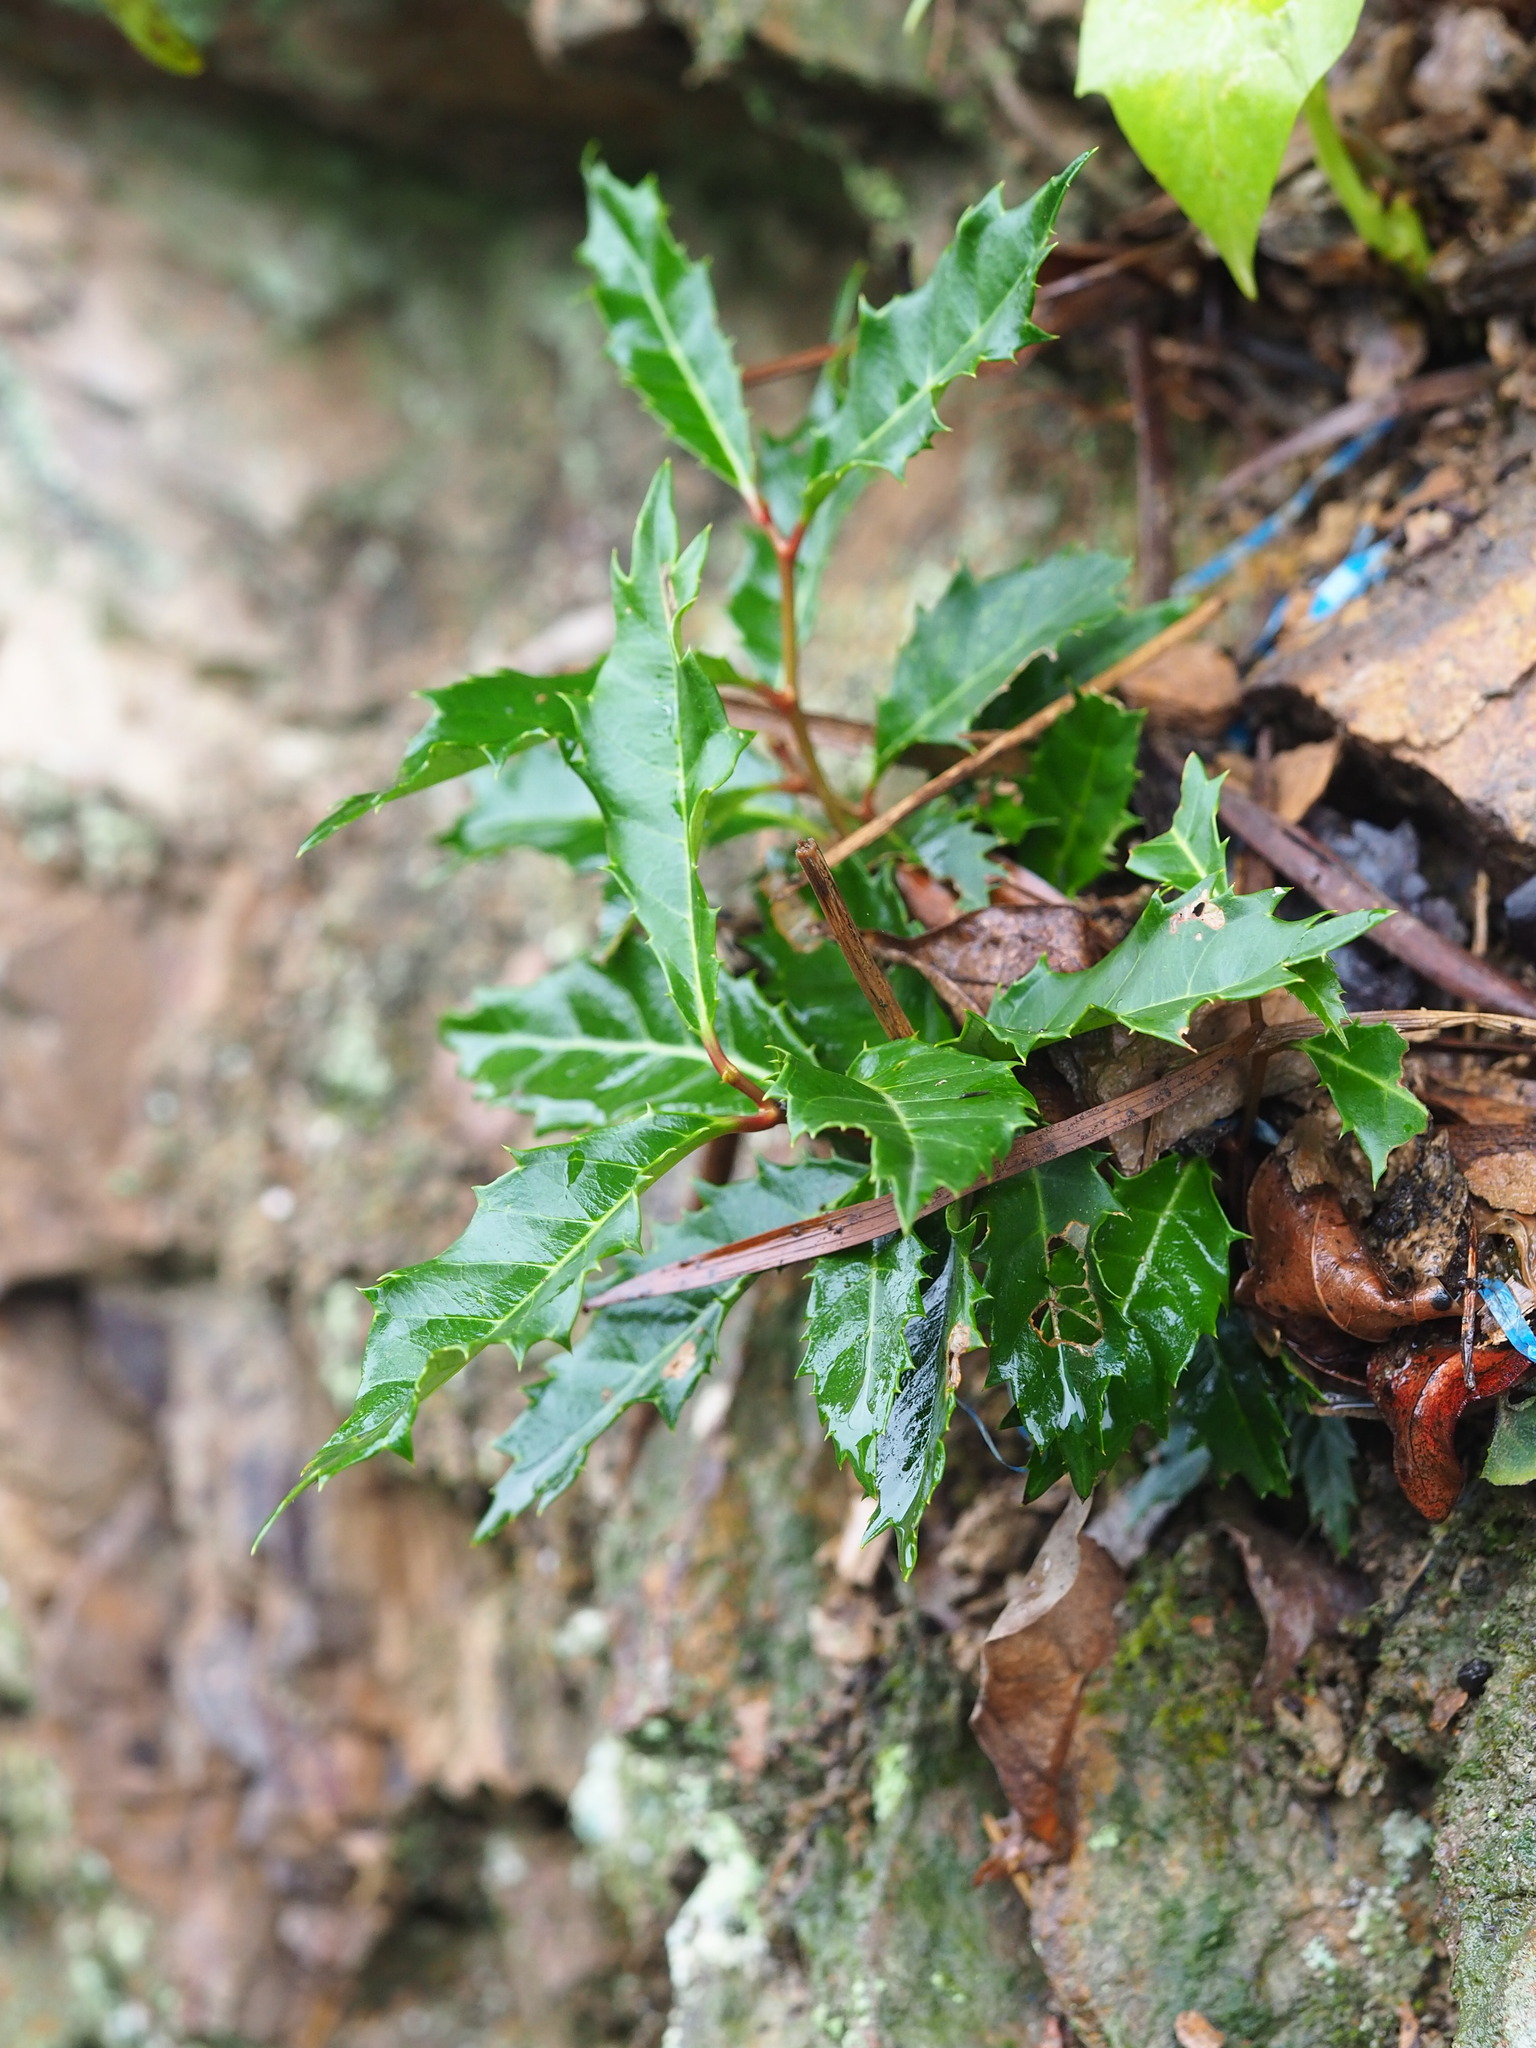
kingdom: Plantae
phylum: Tracheophyta
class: Magnoliopsida
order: Saxifragales
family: Iteaceae
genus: Itea
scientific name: Itea oldhamii
